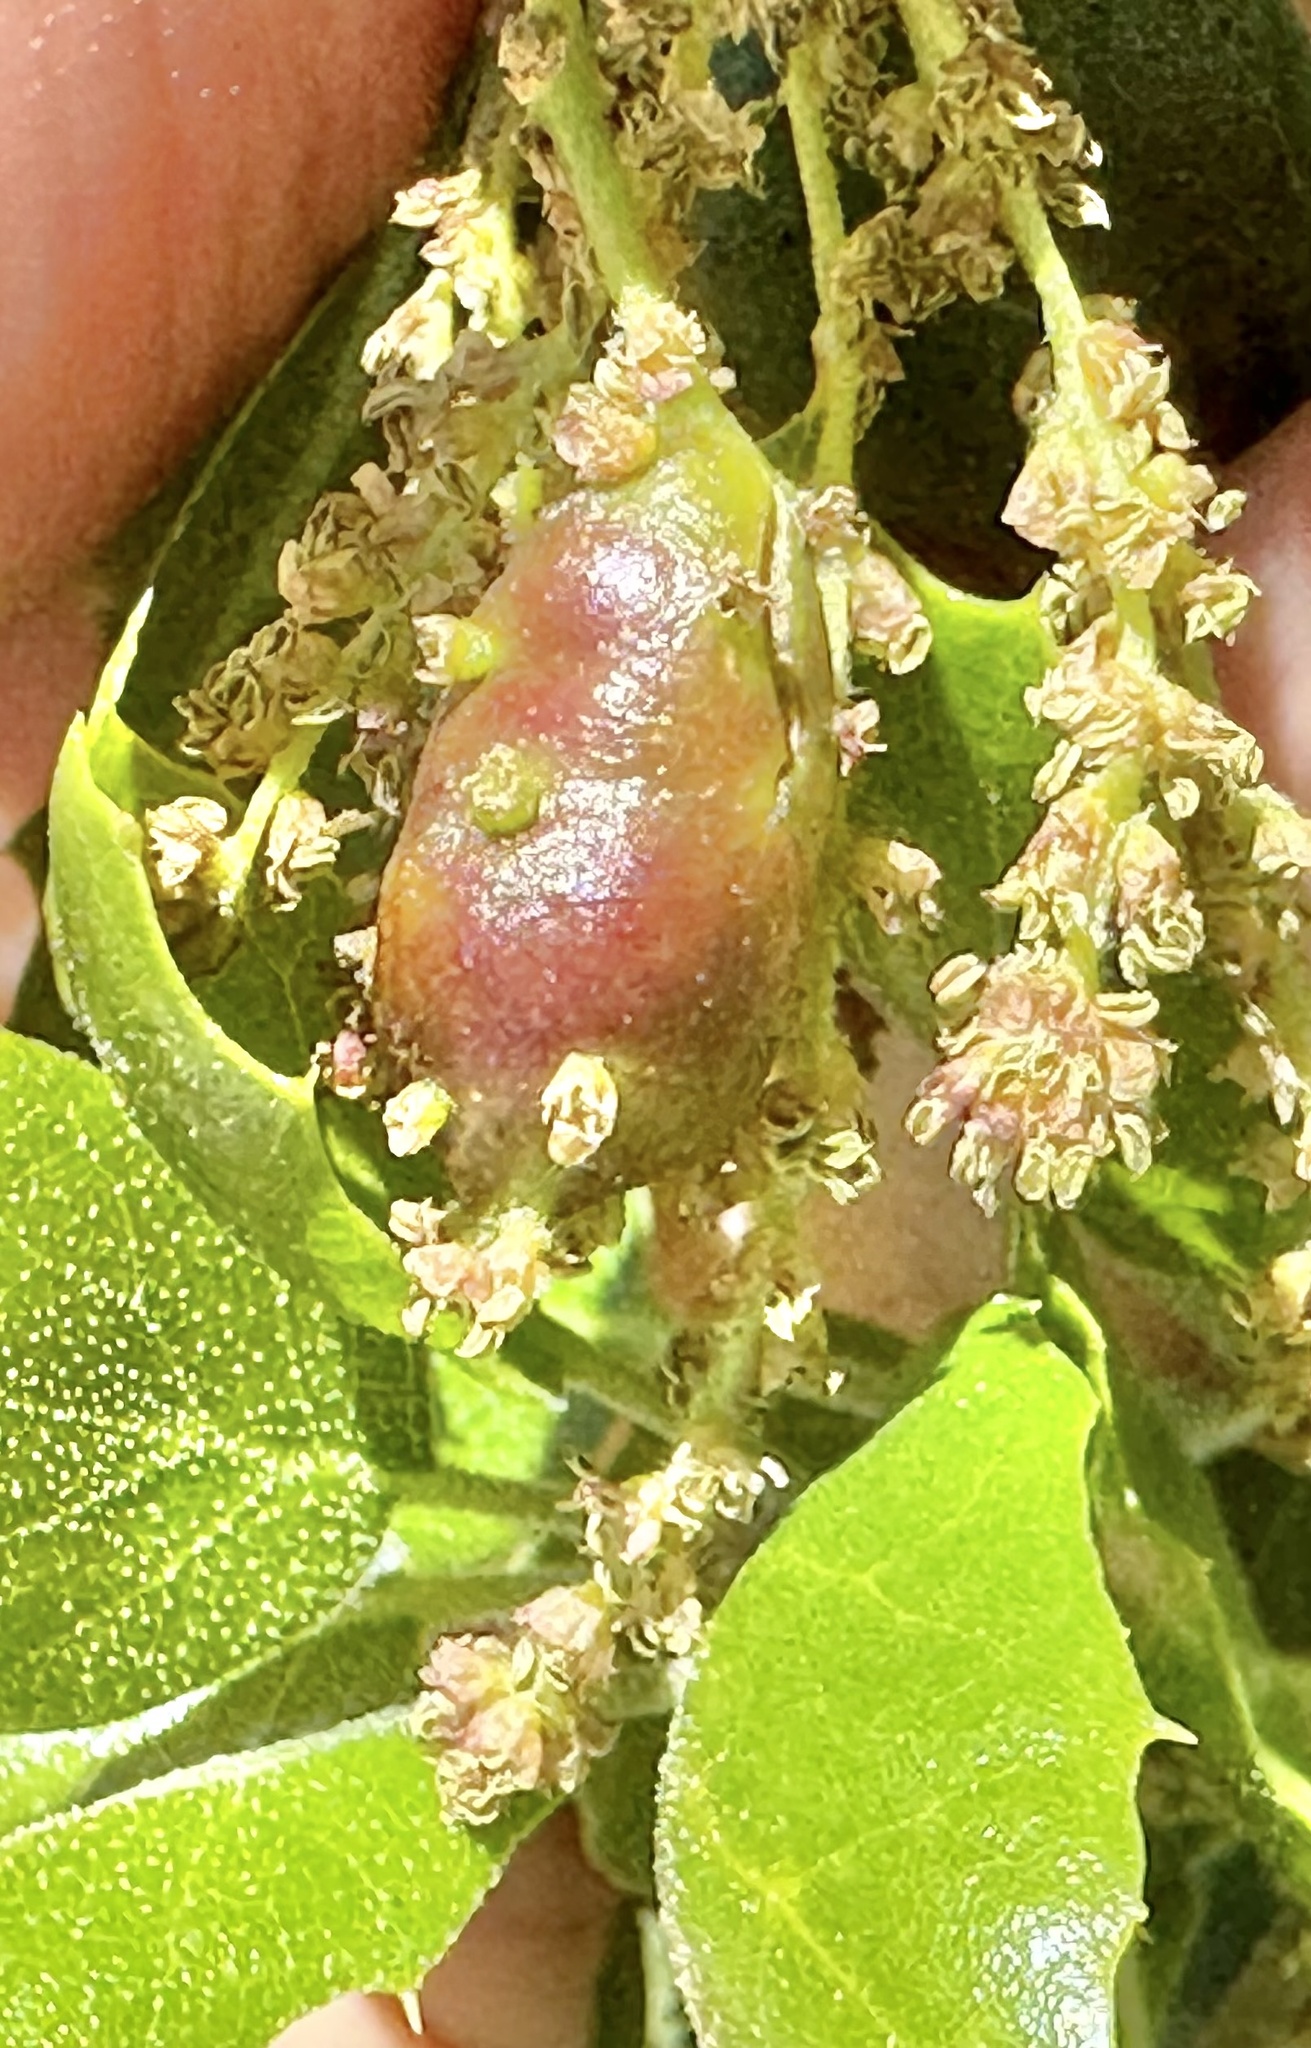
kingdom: Animalia
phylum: Arthropoda
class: Insecta
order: Hymenoptera
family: Cynipidae
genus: Callirhytis
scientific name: Callirhytis
